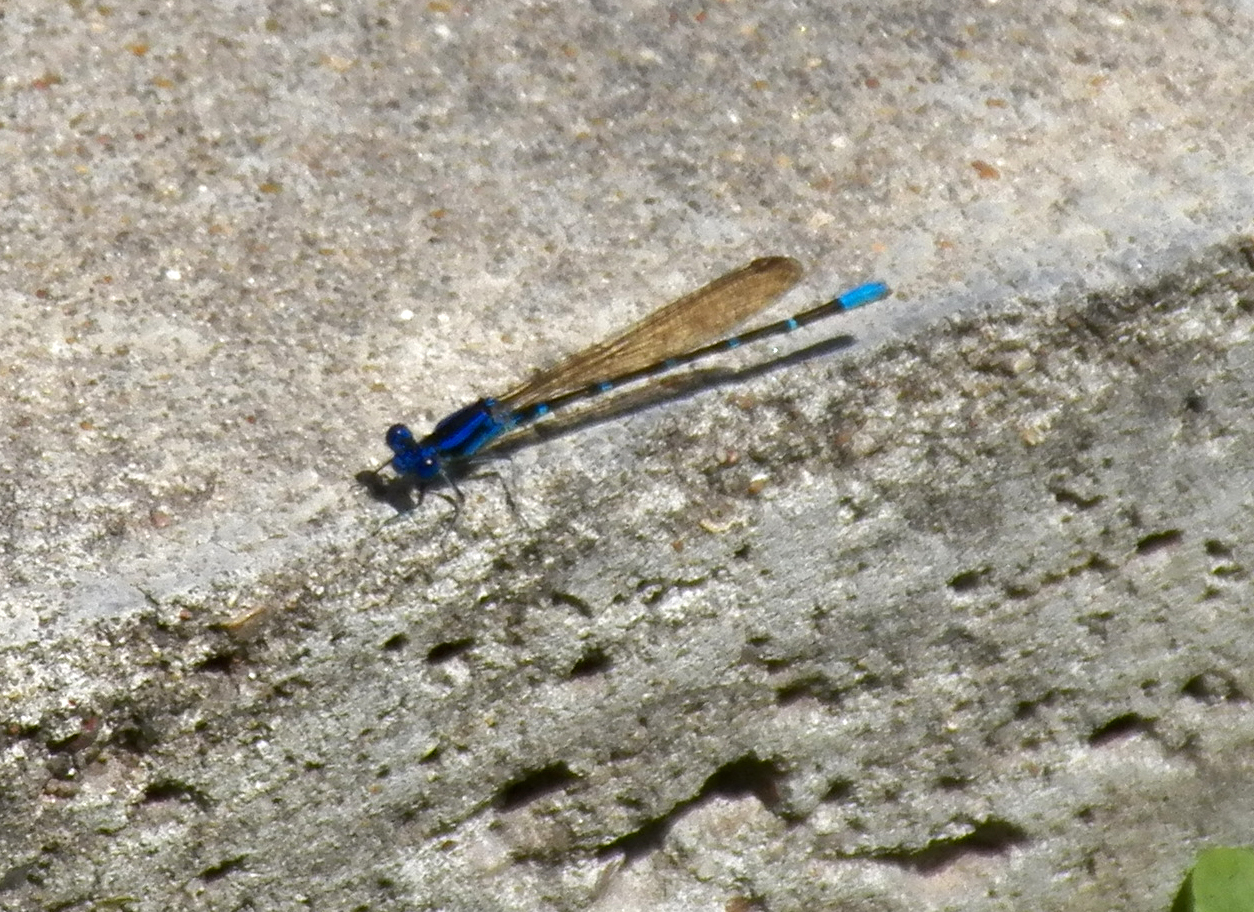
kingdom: Animalia
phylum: Arthropoda
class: Insecta
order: Odonata
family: Coenagrionidae
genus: Argia
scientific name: Argia sedula
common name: Blue-ringed dancer
